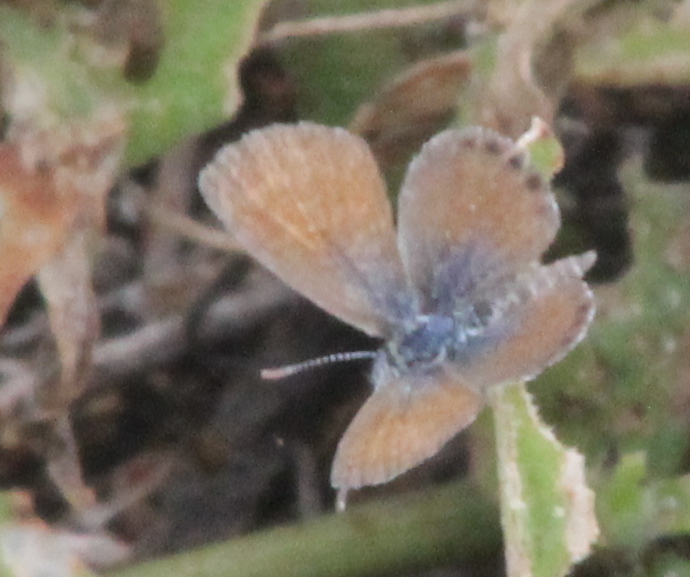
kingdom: Animalia
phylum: Arthropoda
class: Insecta
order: Lepidoptera
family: Lycaenidae
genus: Brephidium
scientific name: Brephidium exilis
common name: Pygmy blue
